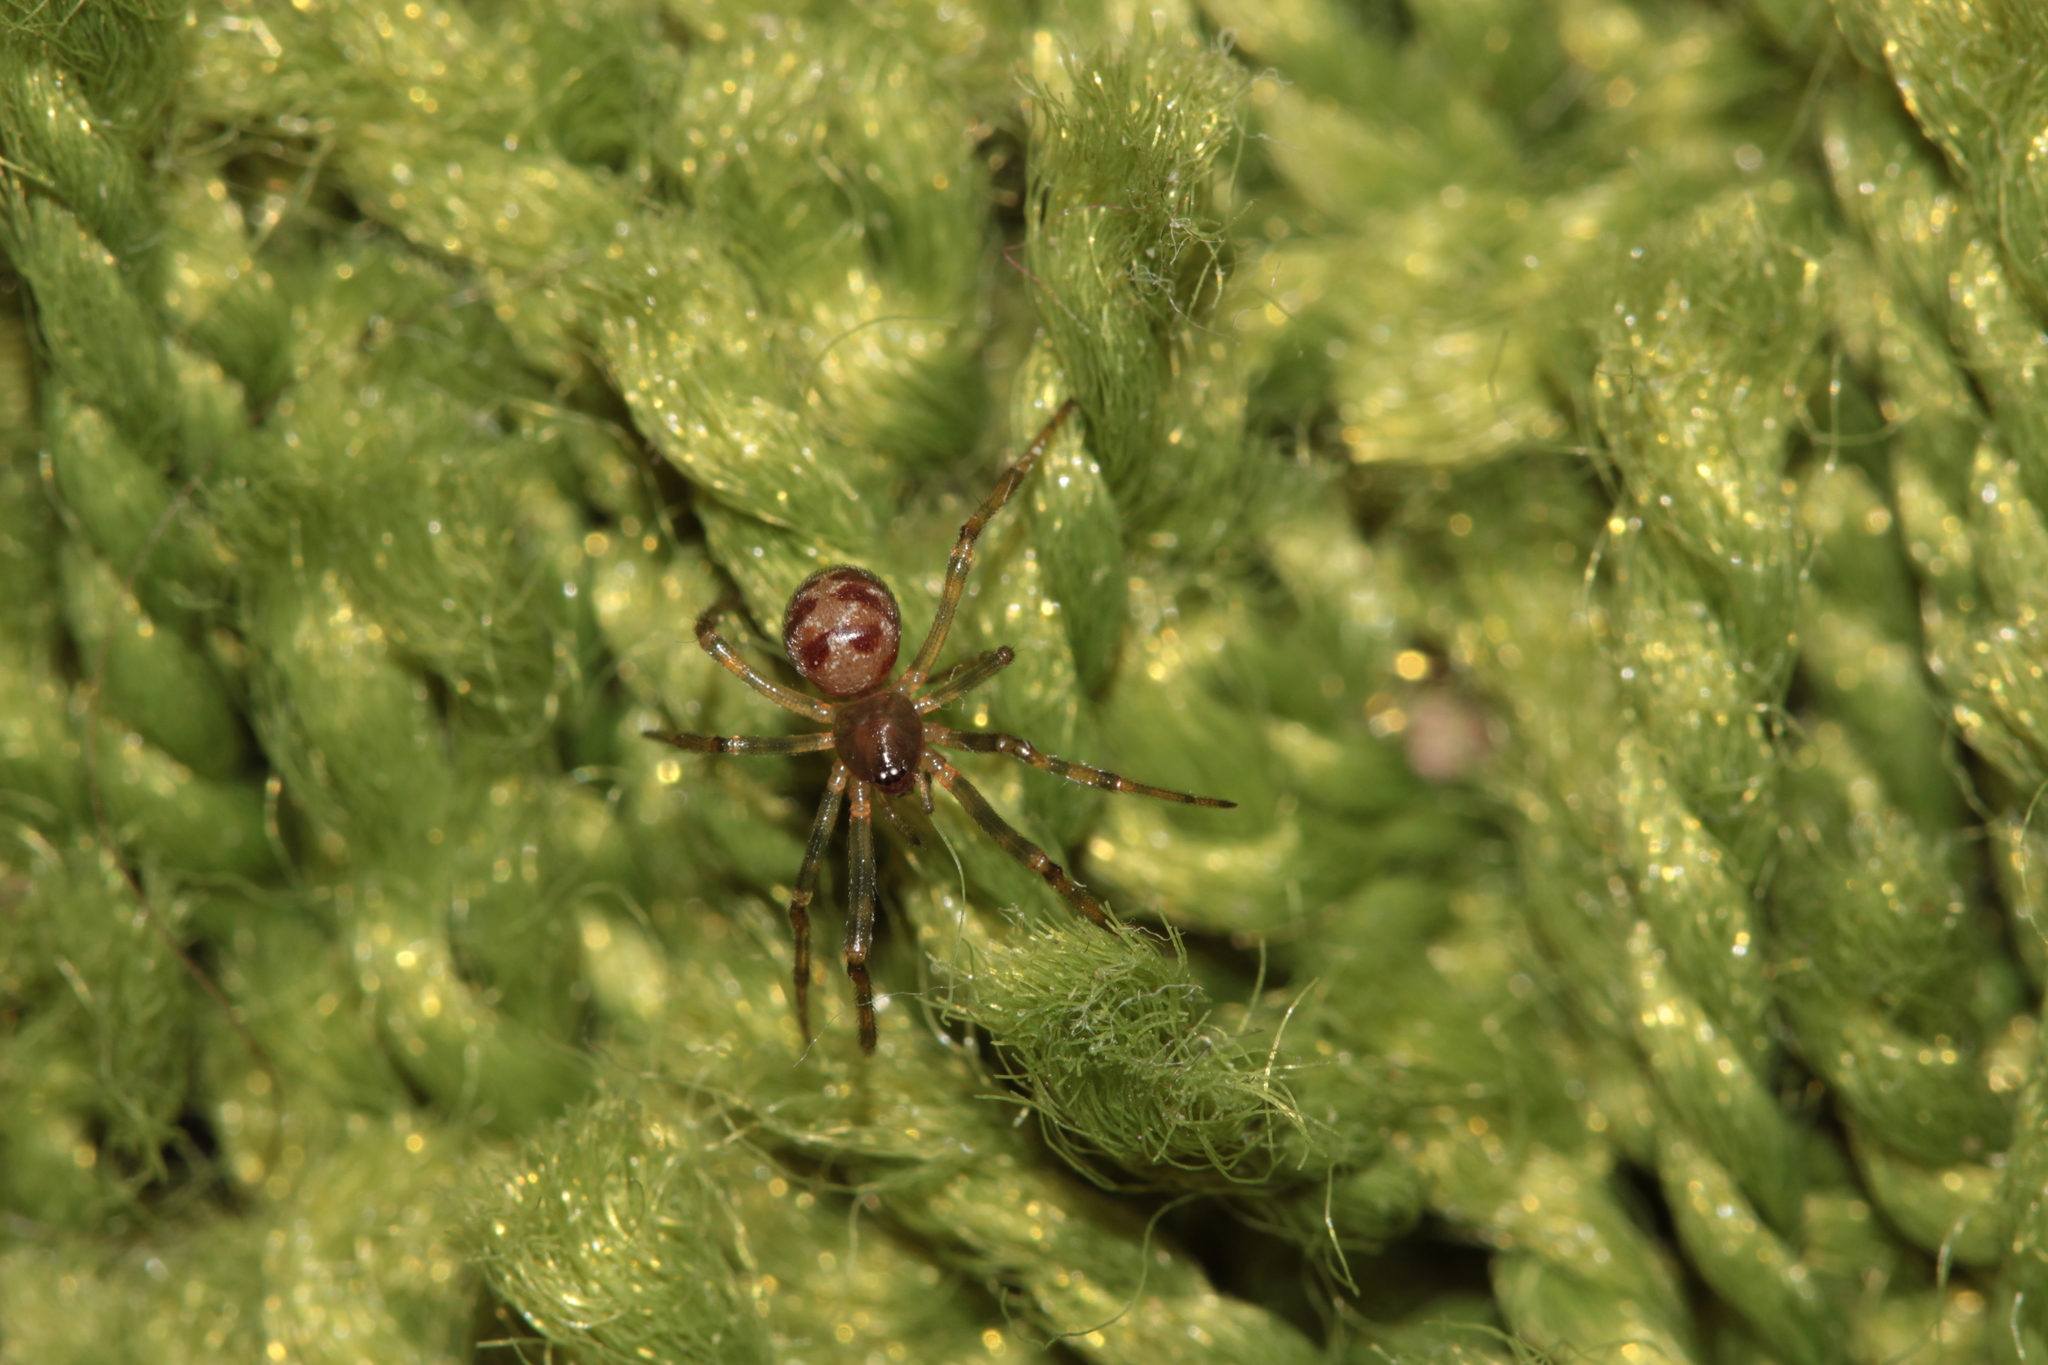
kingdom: Animalia
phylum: Arthropoda
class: Arachnida
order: Araneae
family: Theridiidae
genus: Steatoda
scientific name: Steatoda triangulosa
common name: Triangulate bud spider
